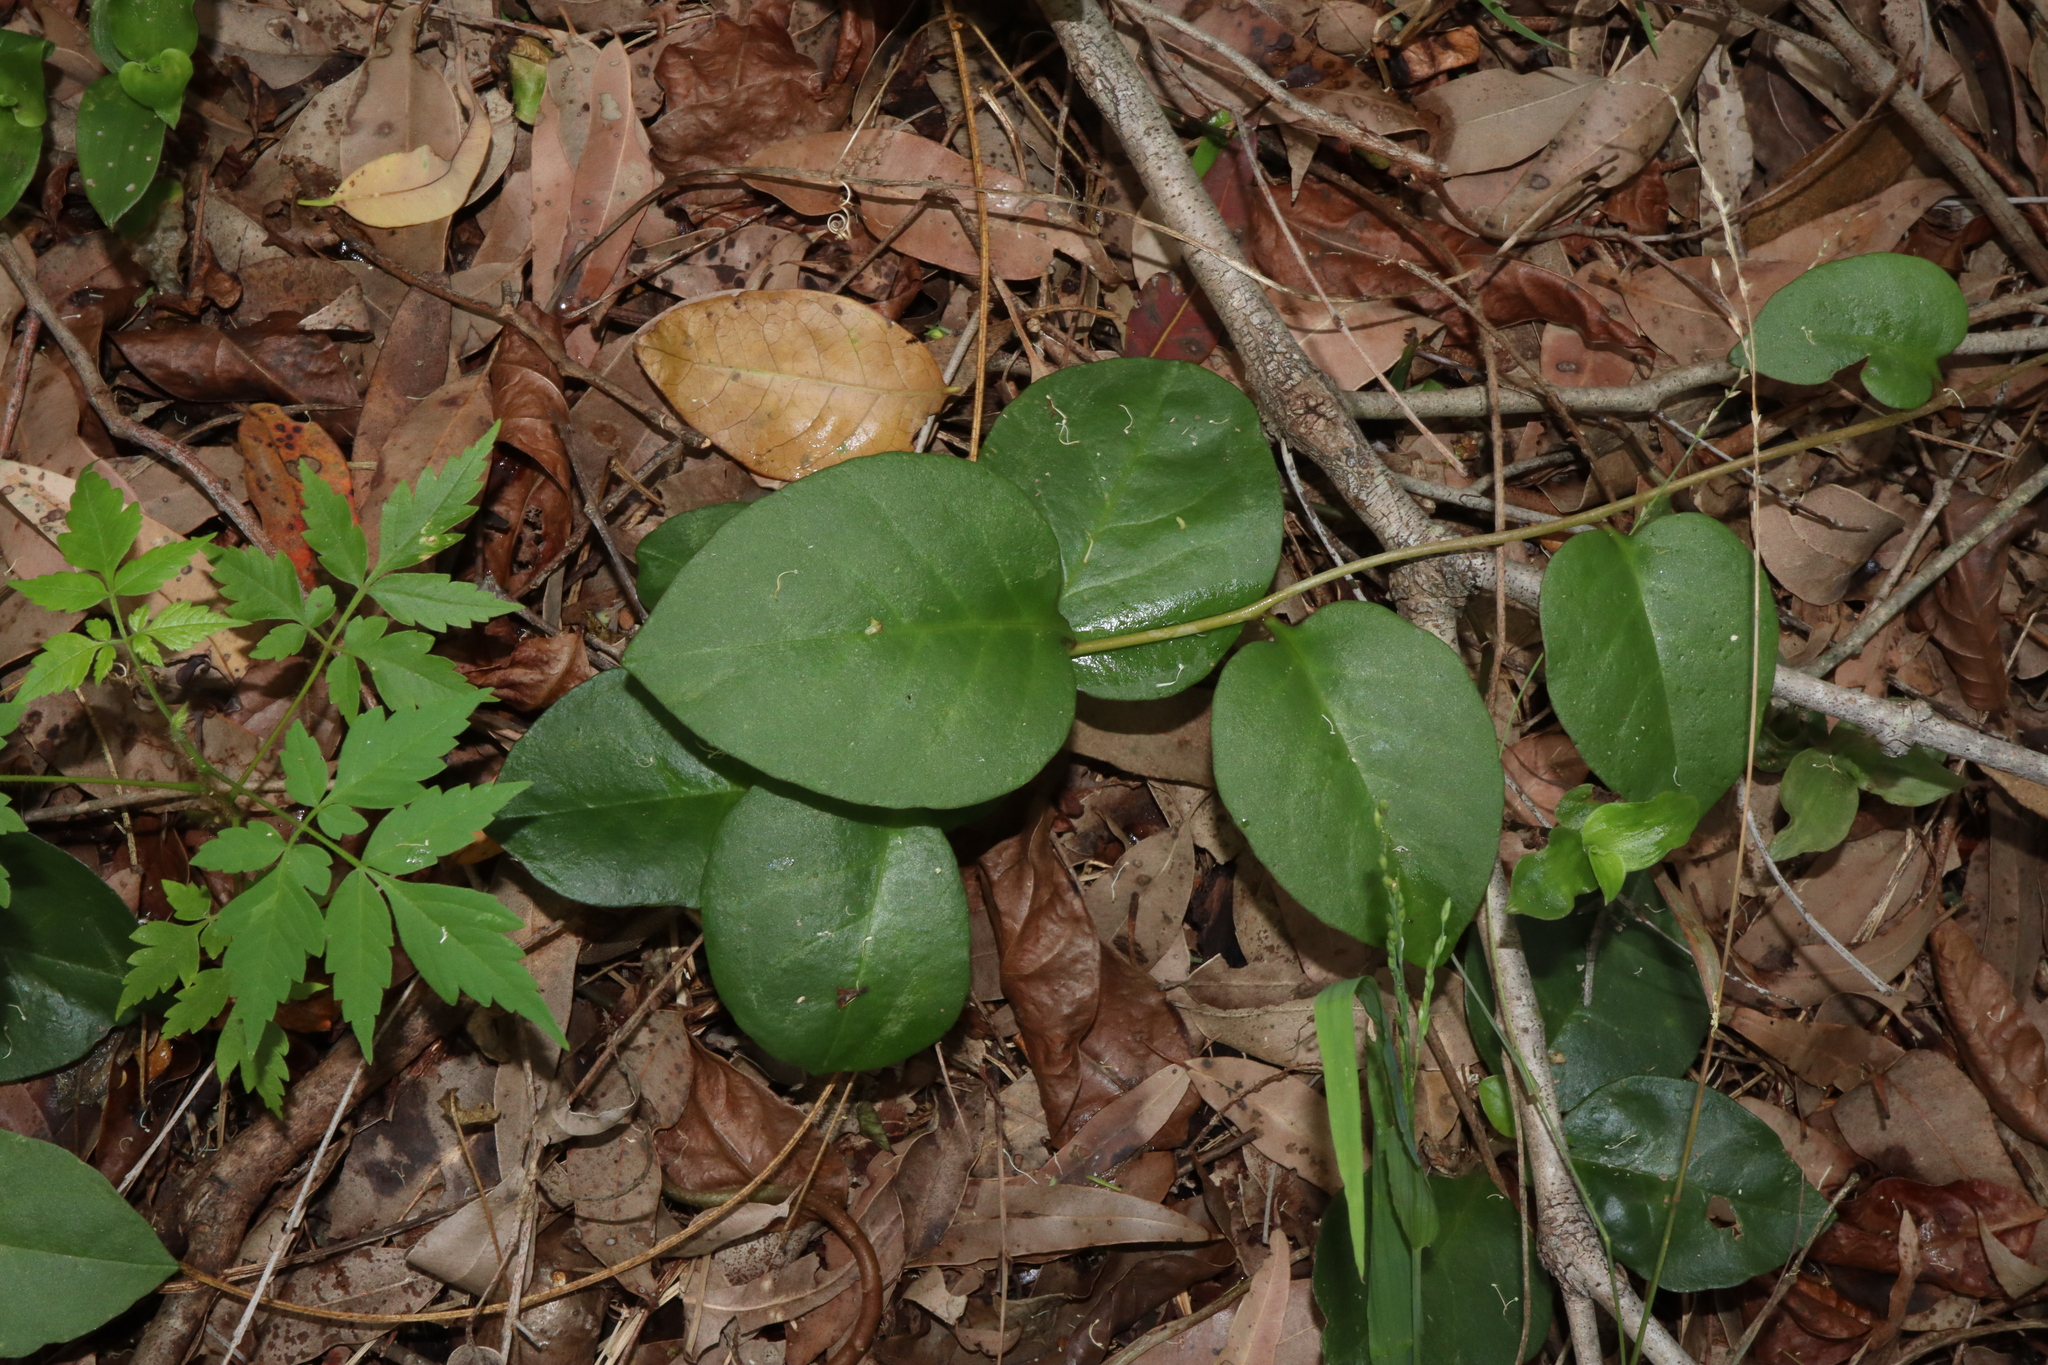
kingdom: Plantae
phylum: Tracheophyta
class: Magnoliopsida
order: Caryophyllales
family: Basellaceae
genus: Anredera
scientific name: Anredera cordifolia
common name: Heartleaf madeiravine
